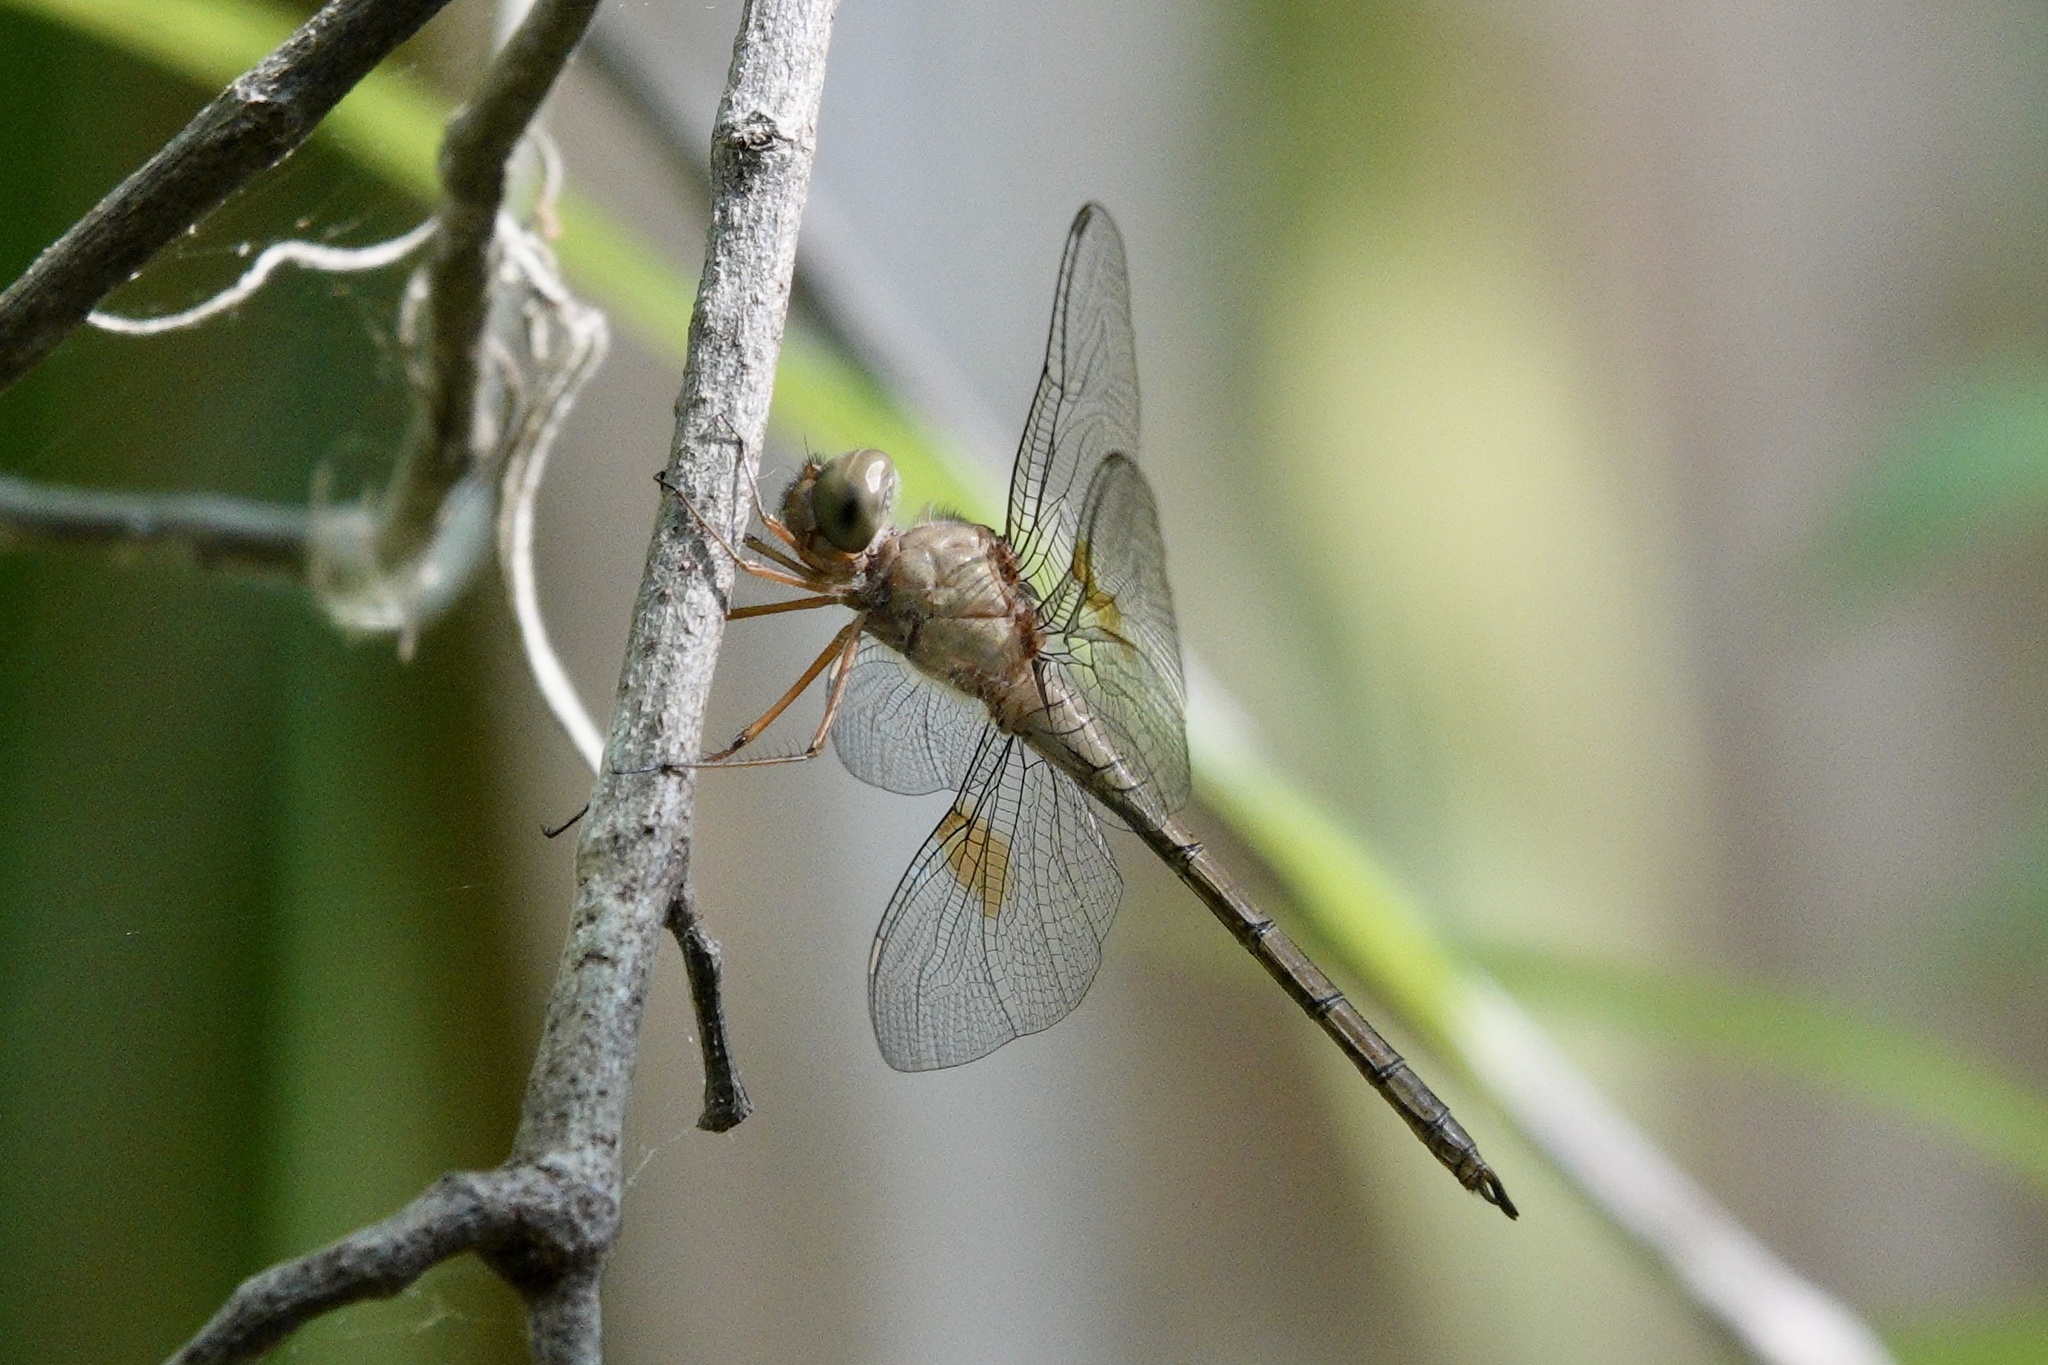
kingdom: Animalia
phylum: Arthropoda
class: Insecta
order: Odonata
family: Libellulidae
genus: Tholymis
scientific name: Tholymis citrina
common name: Evening skimmer
